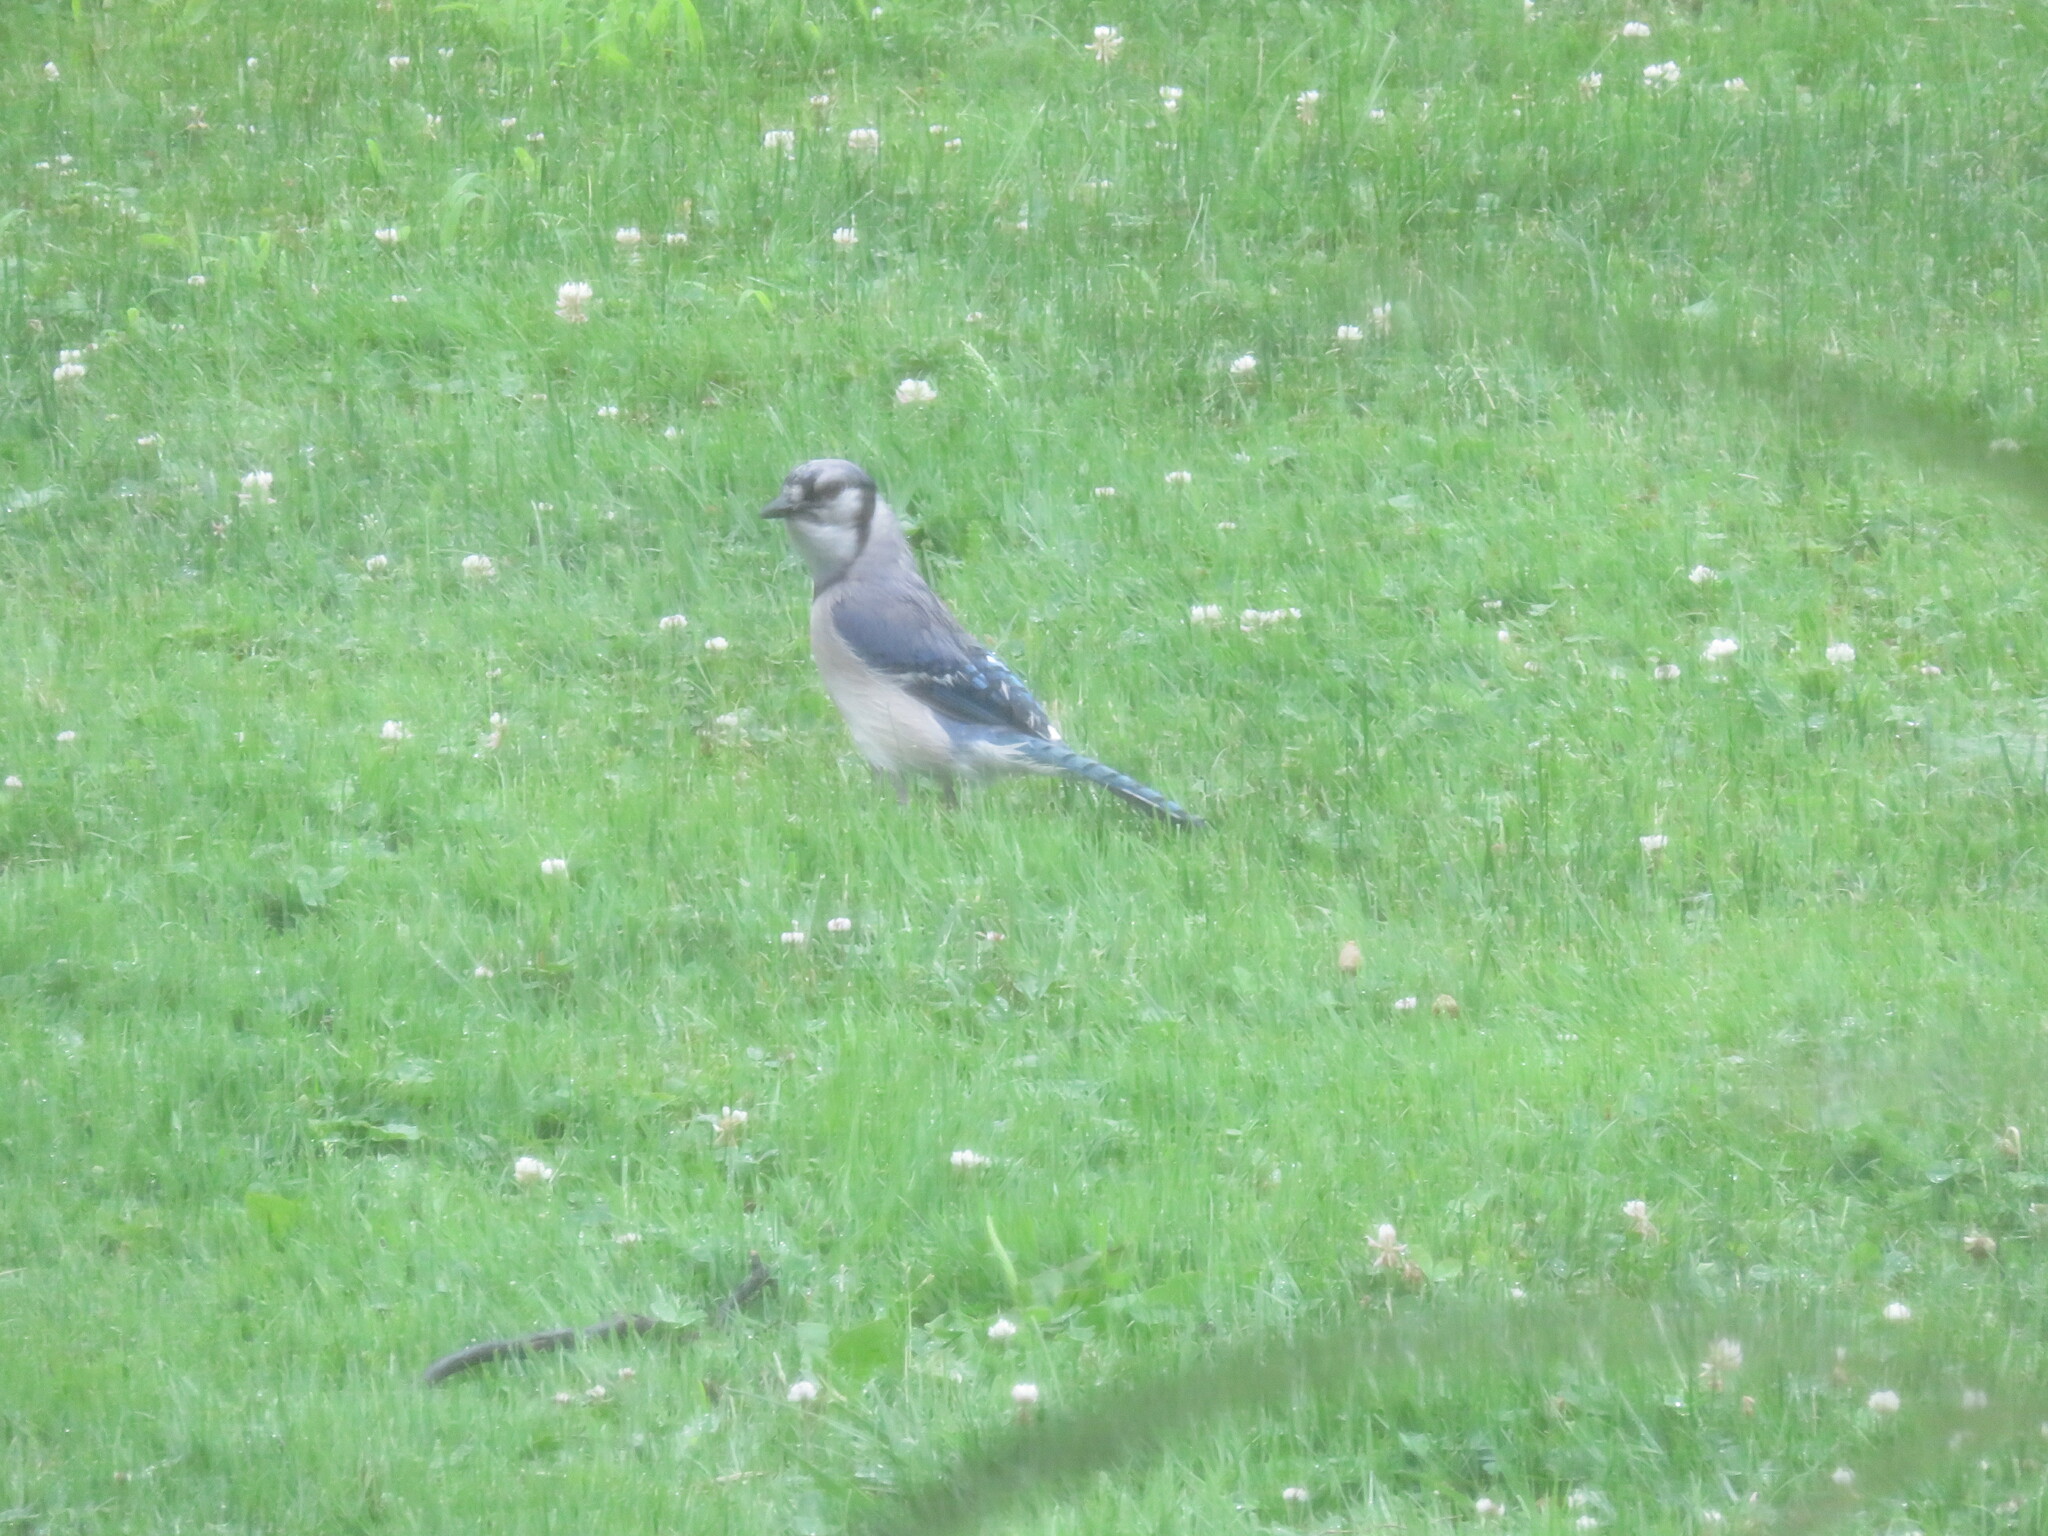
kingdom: Animalia
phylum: Chordata
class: Aves
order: Passeriformes
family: Corvidae
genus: Cyanocitta
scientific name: Cyanocitta cristata
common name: Blue jay
